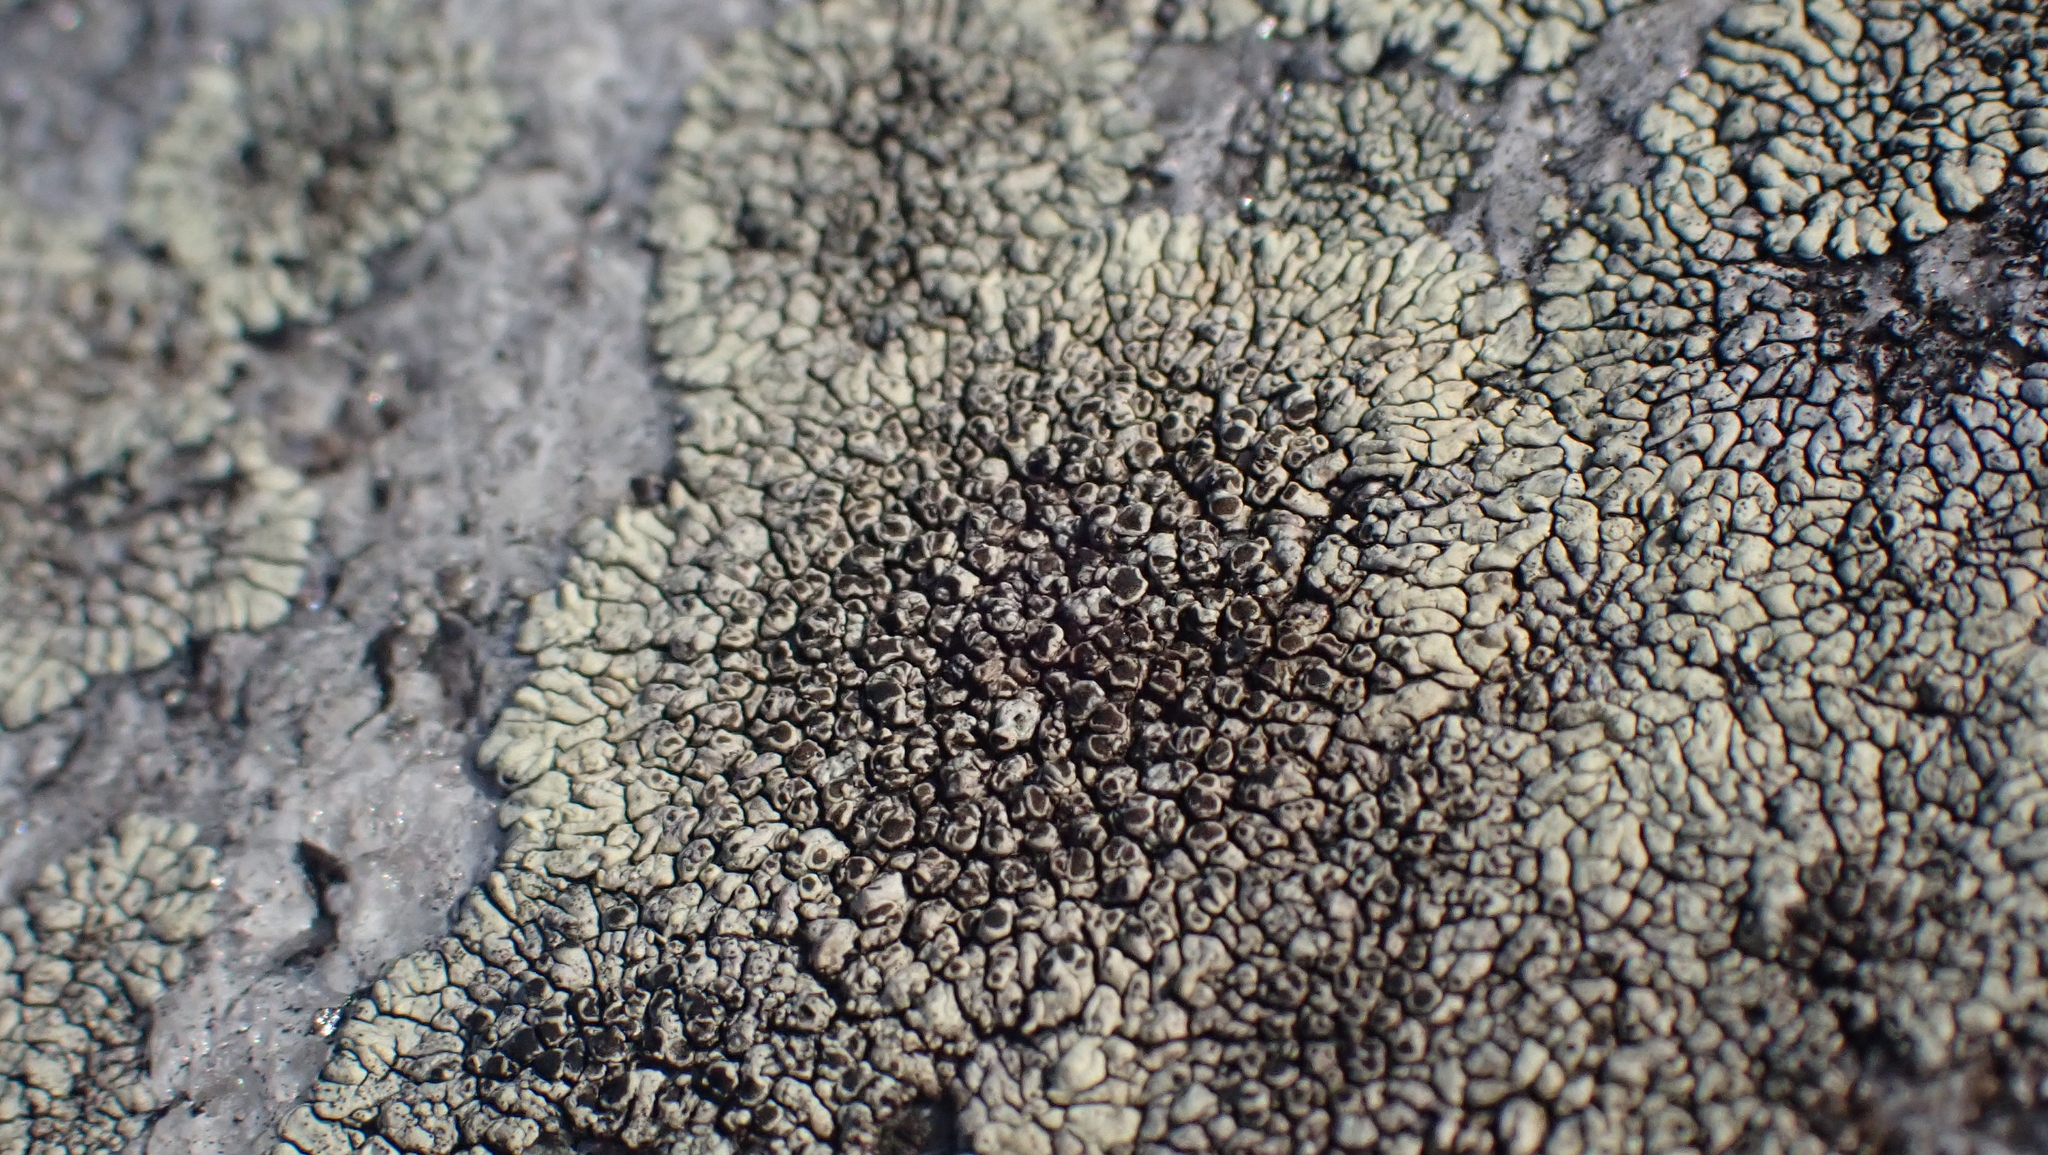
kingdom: Fungi
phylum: Ascomycota
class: Lecanoromycetes
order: Caliciales
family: Caliciaceae
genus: Dimelaena
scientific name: Dimelaena oreina
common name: Golden moonglow lichen
